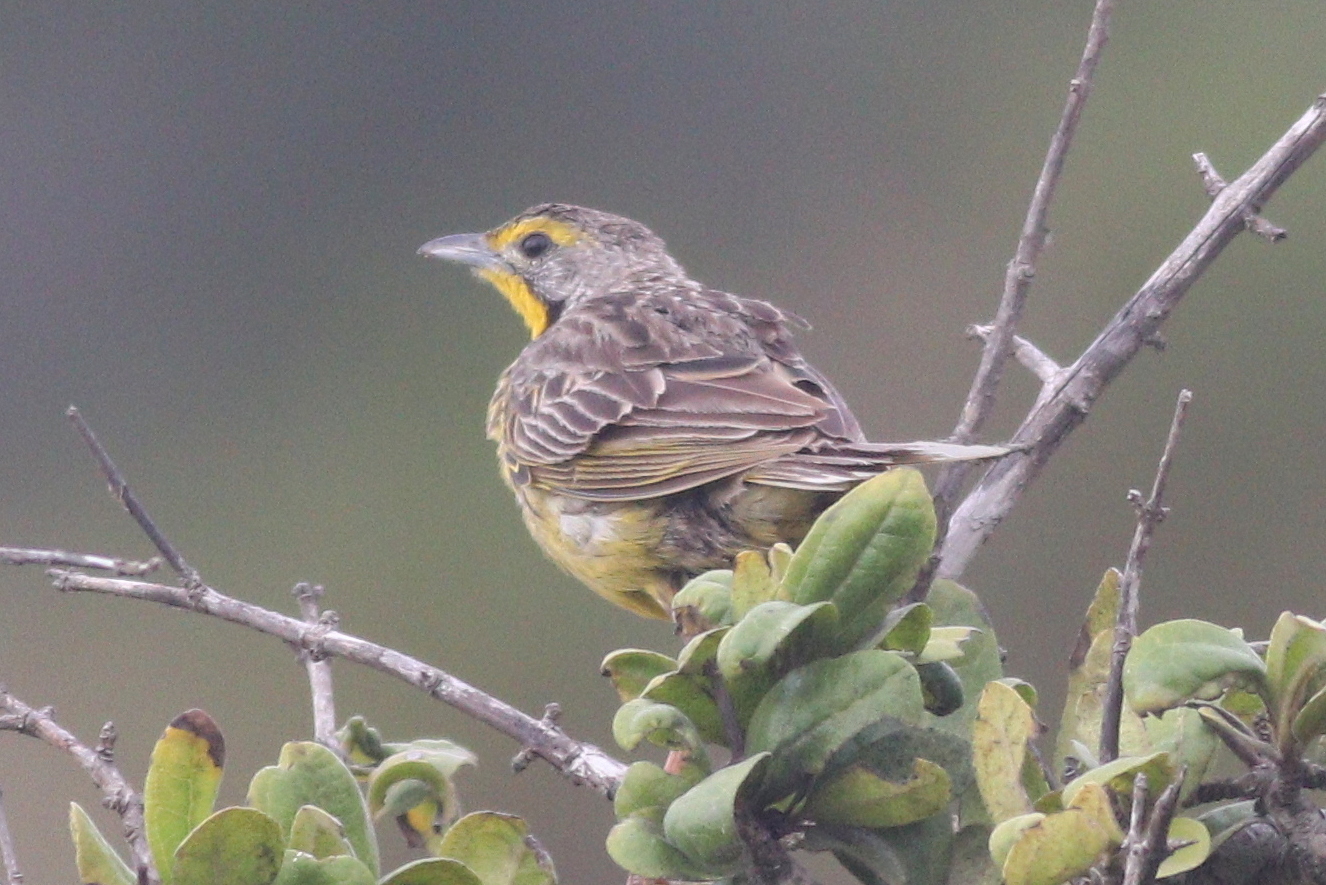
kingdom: Animalia
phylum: Chordata
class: Aves
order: Passeriformes
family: Motacillidae
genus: Macronyx
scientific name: Macronyx croceus
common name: Yellow-throated longclaw
